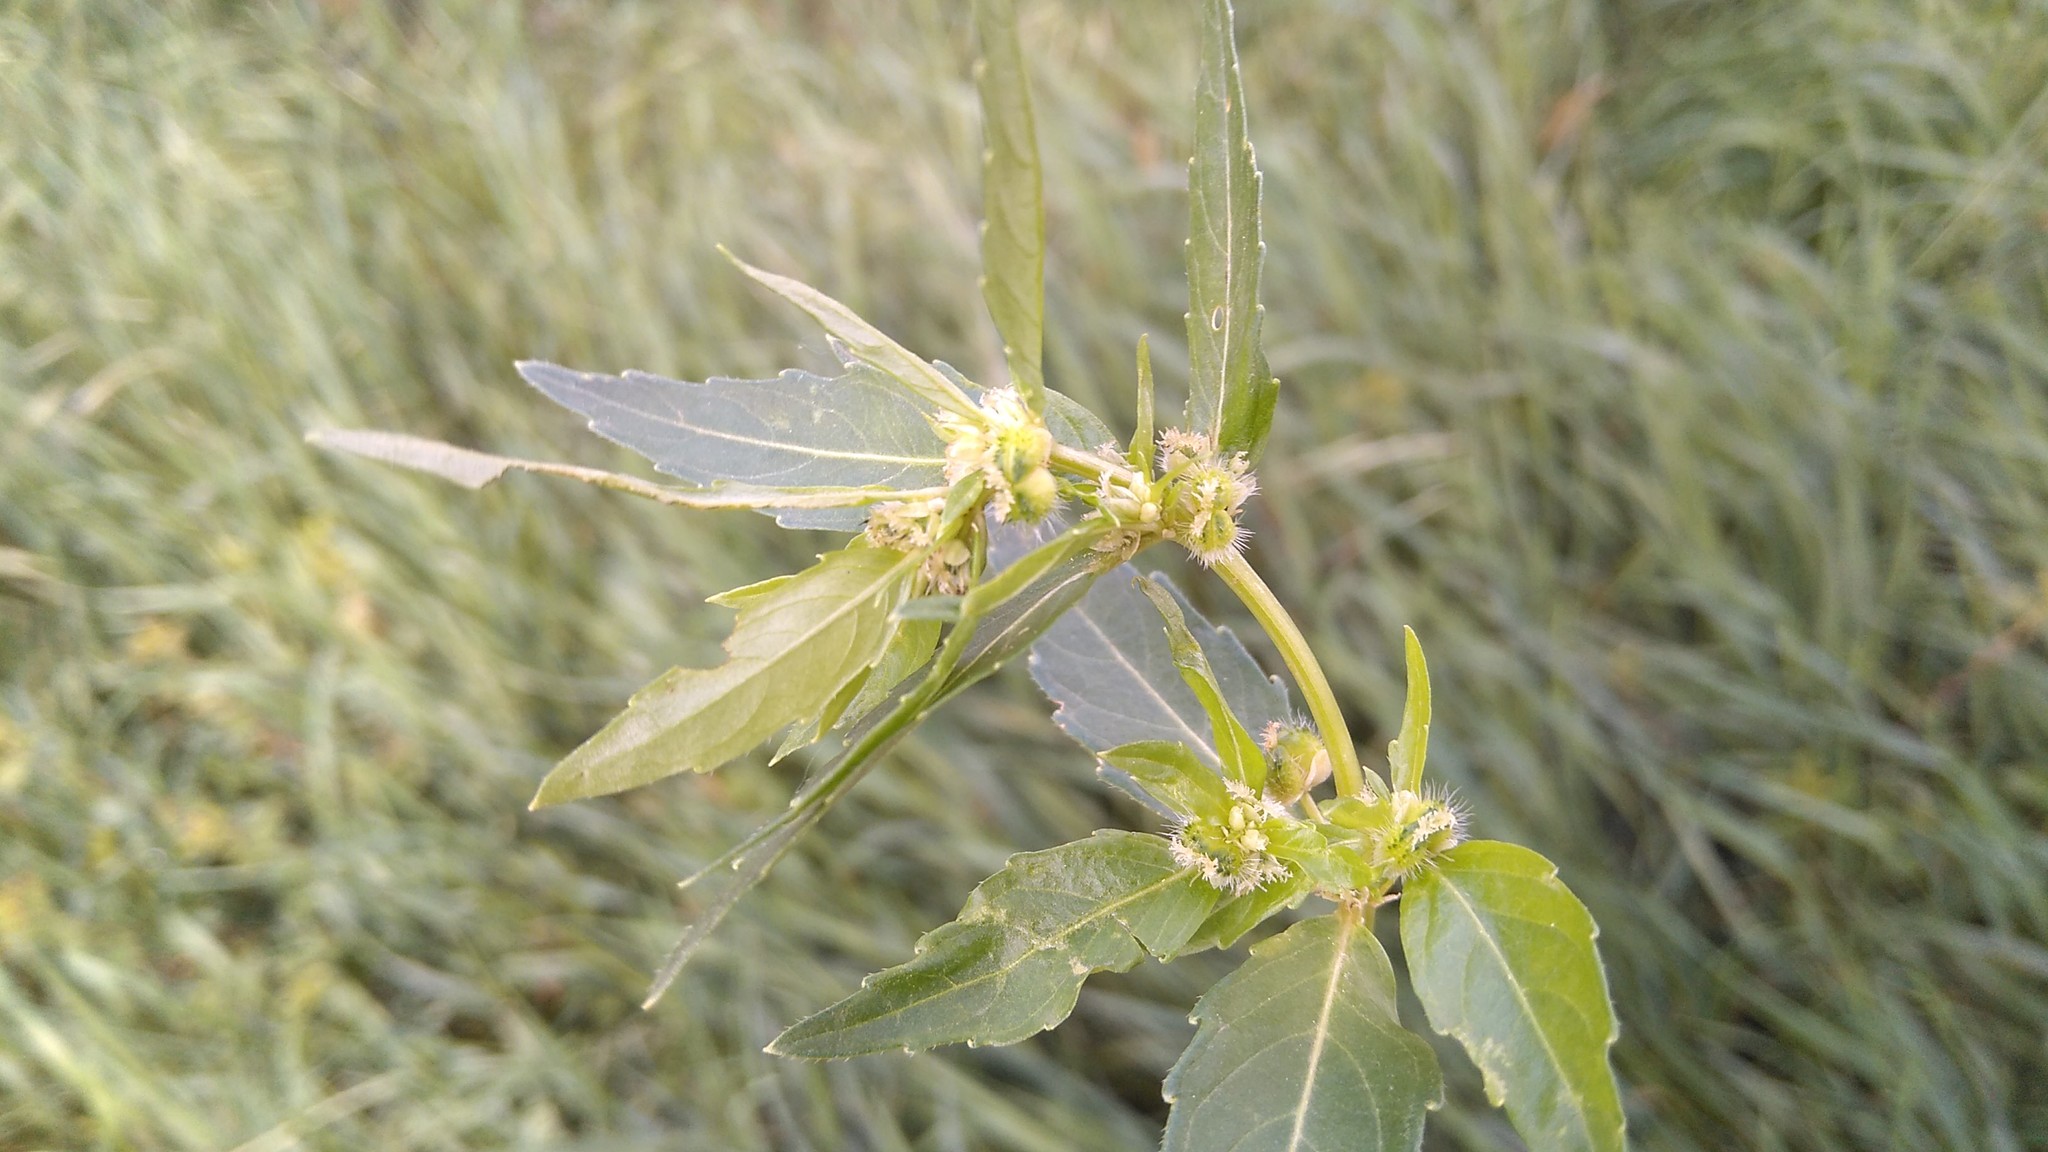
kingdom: Plantae
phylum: Tracheophyta
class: Magnoliopsida
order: Malpighiales
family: Euphorbiaceae
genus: Mercurialis
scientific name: Mercurialis annua
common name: Annual mercury
